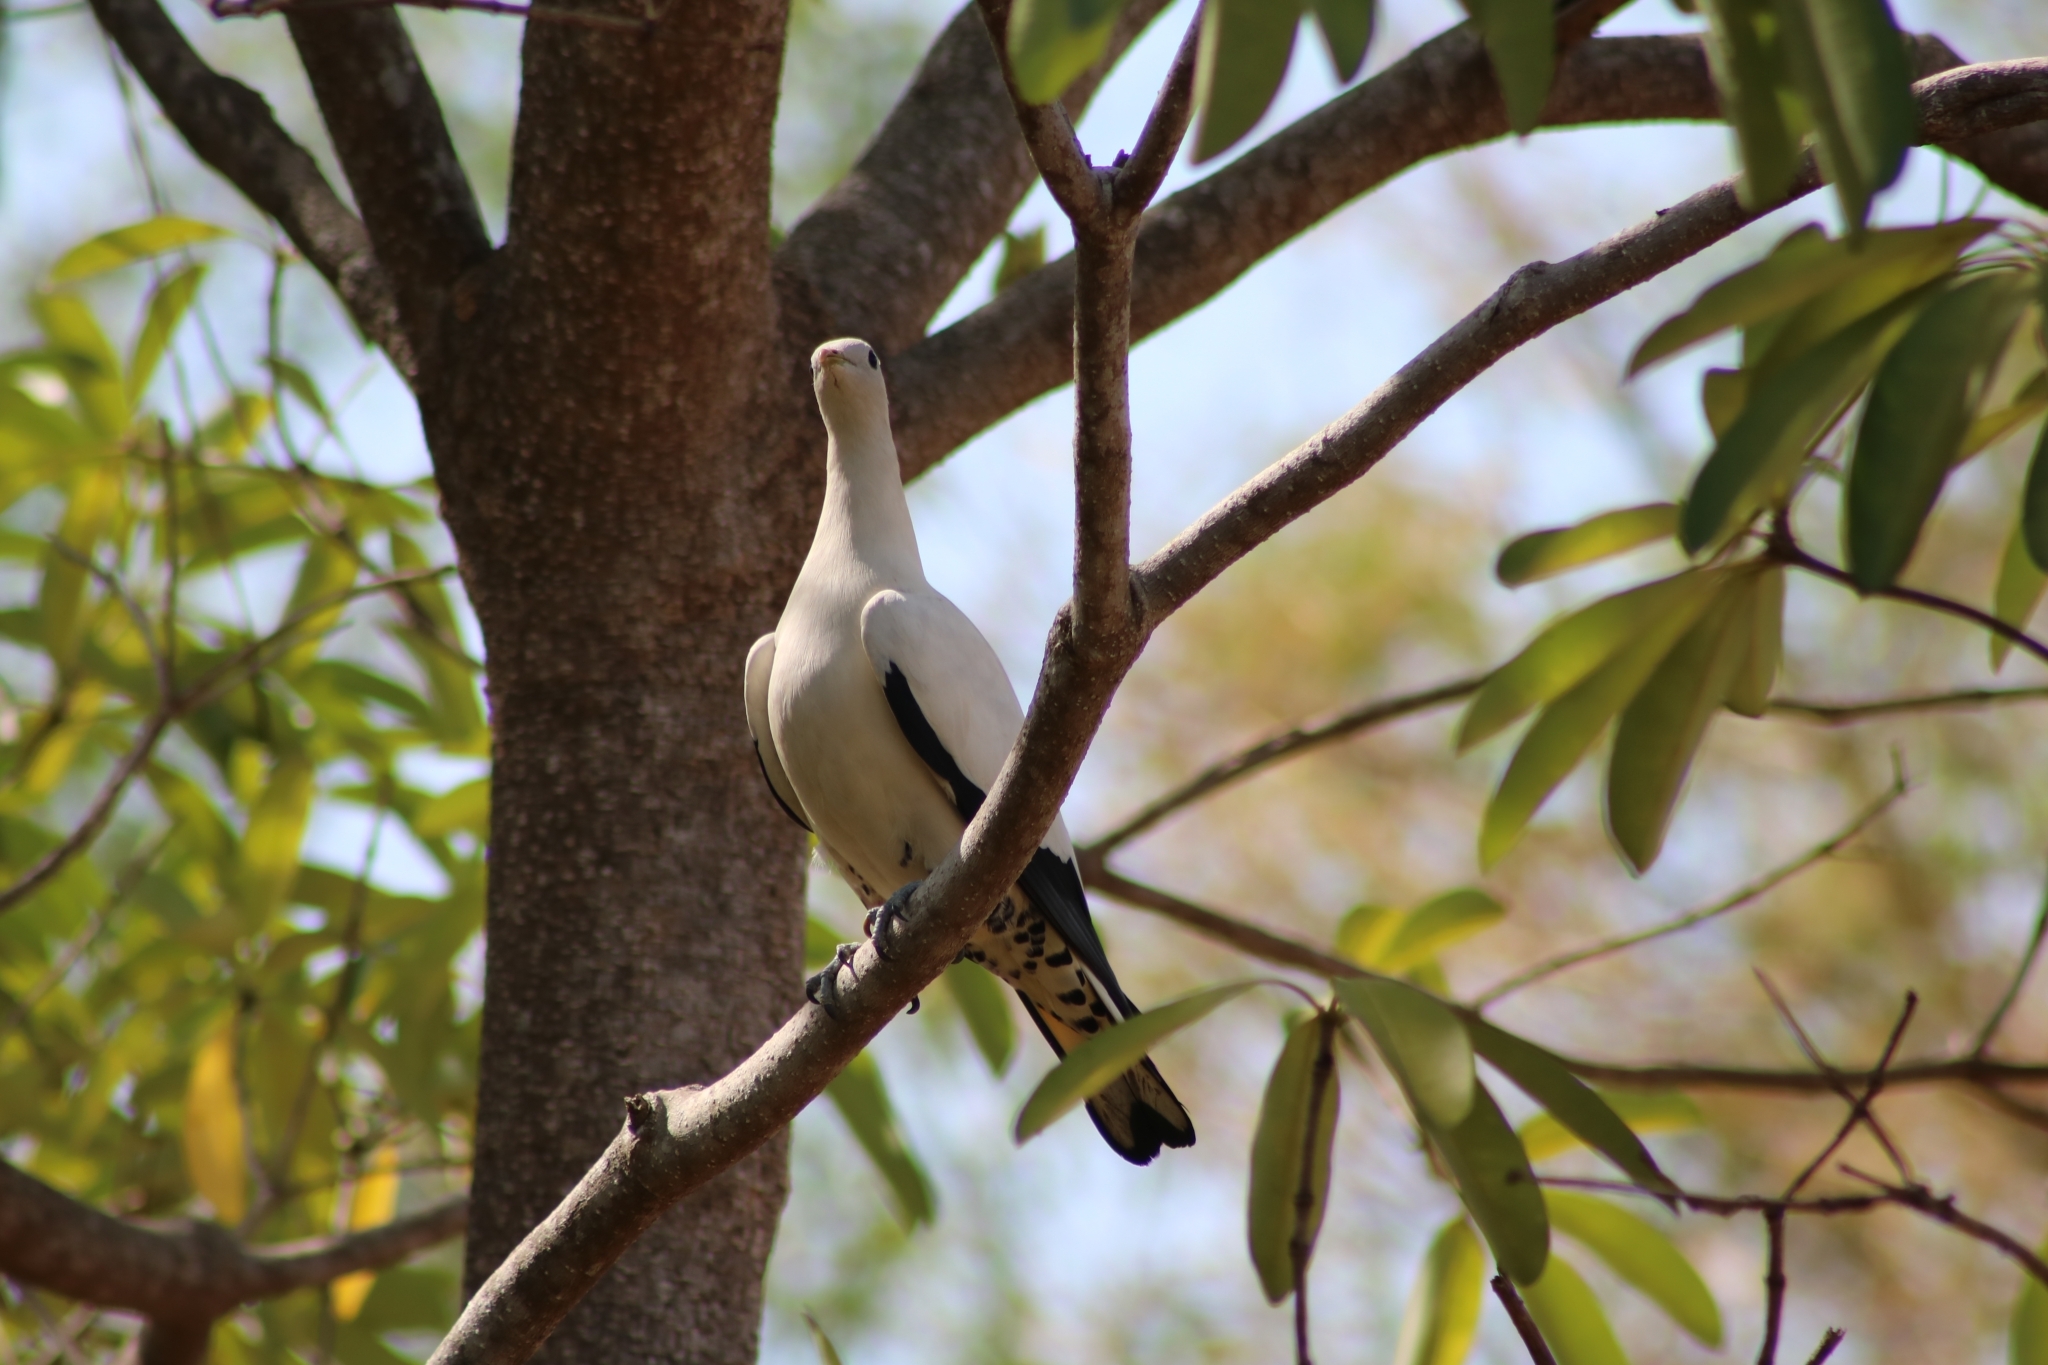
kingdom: Animalia
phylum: Chordata
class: Aves
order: Columbiformes
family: Columbidae
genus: Ducula
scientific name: Ducula spilorrhoa
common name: Torresian imperial pigeon
